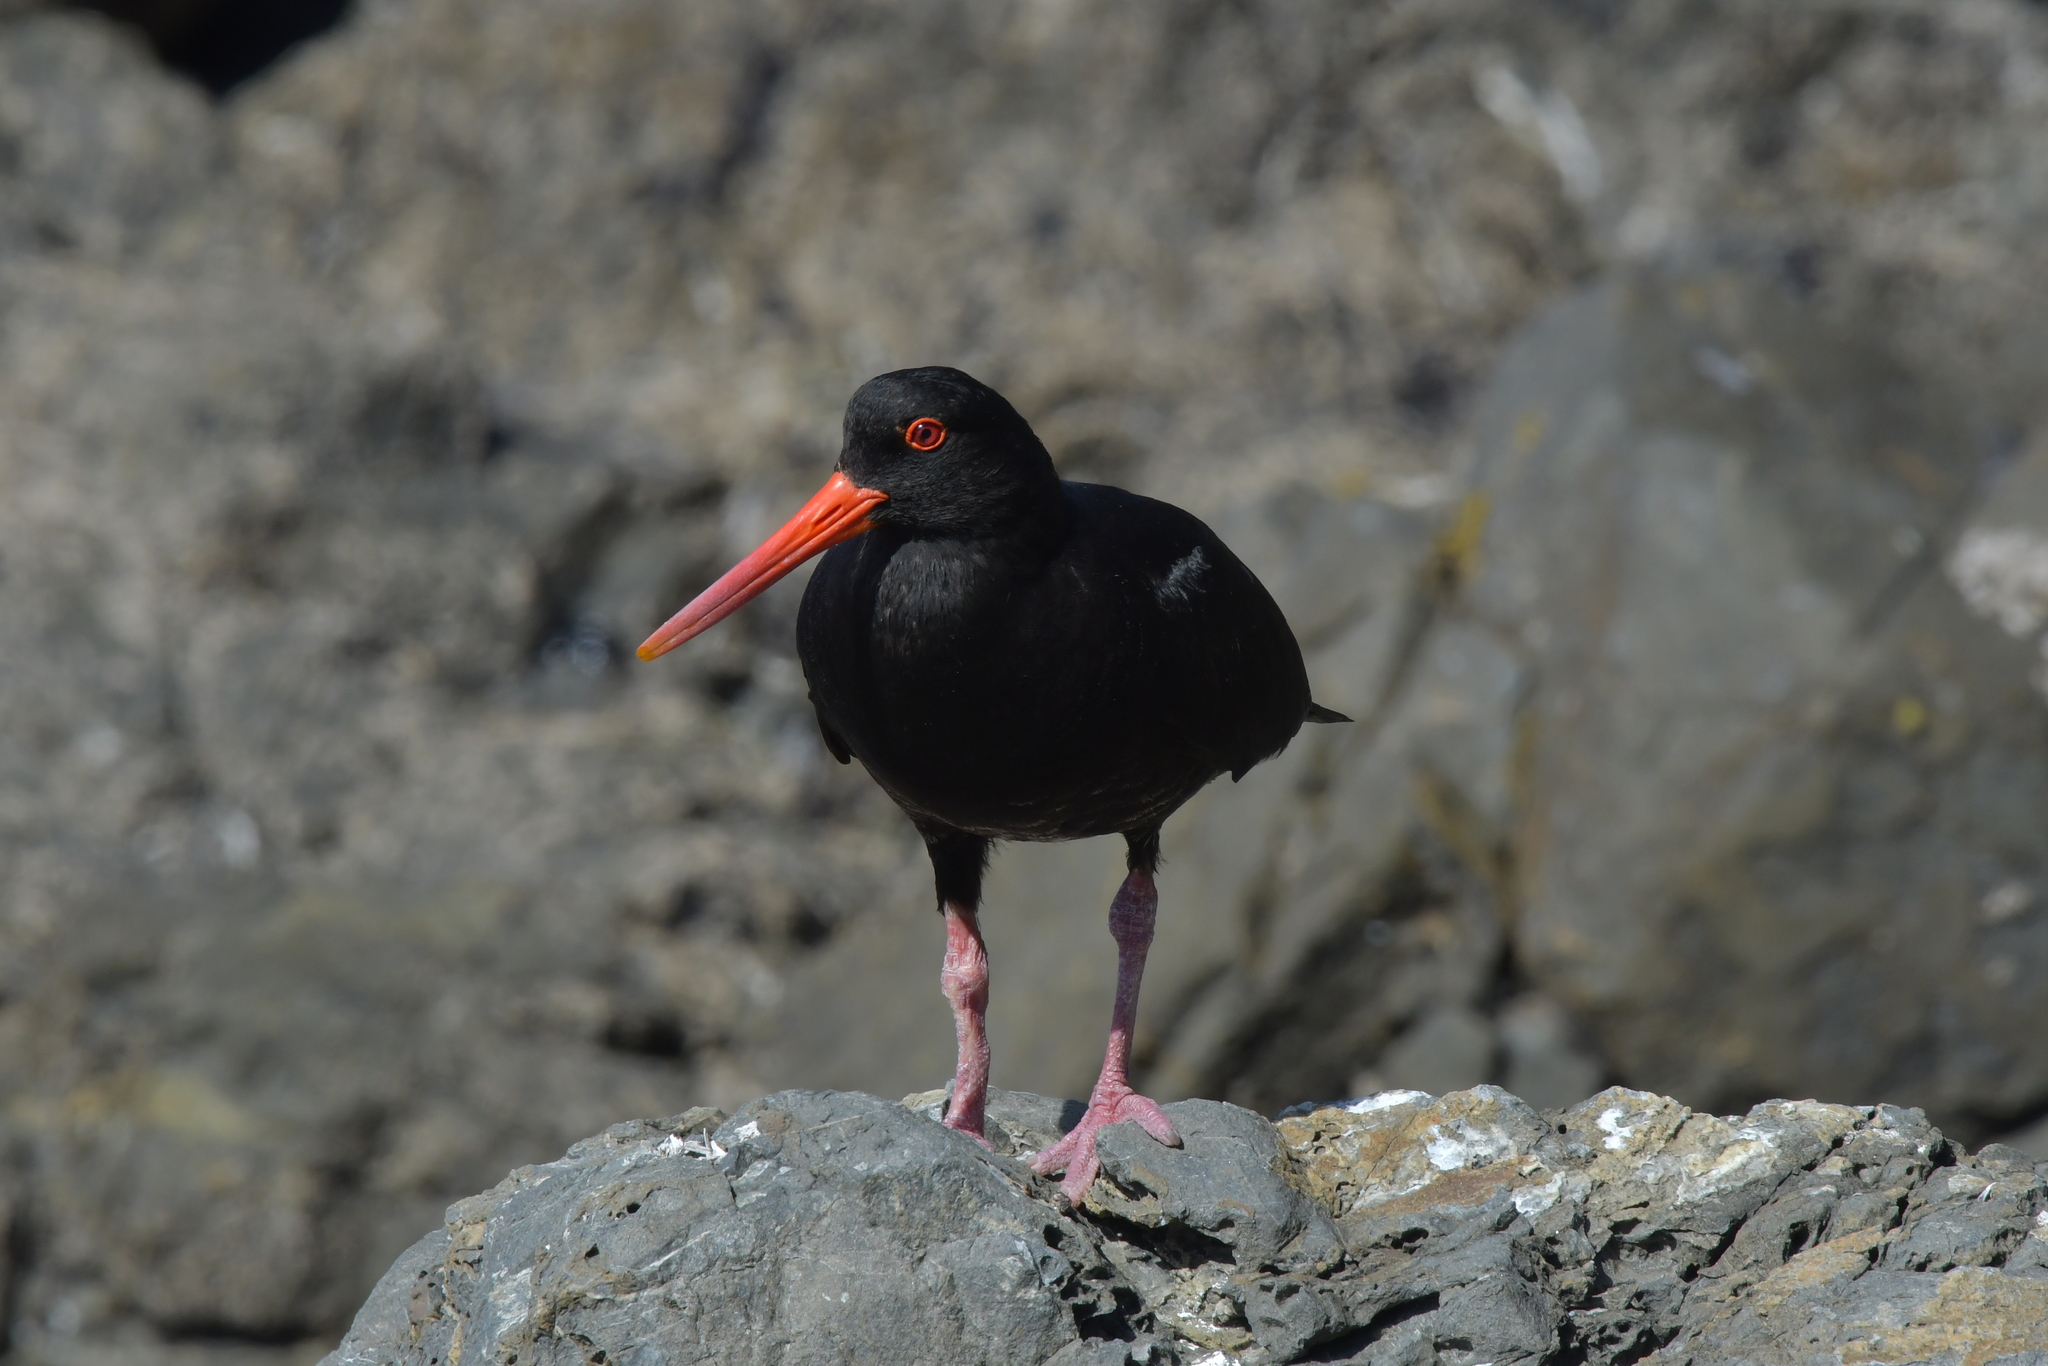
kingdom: Animalia
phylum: Chordata
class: Aves
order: Charadriiformes
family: Haematopodidae
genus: Haematopus
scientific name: Haematopus unicolor
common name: Variable oystercatcher
